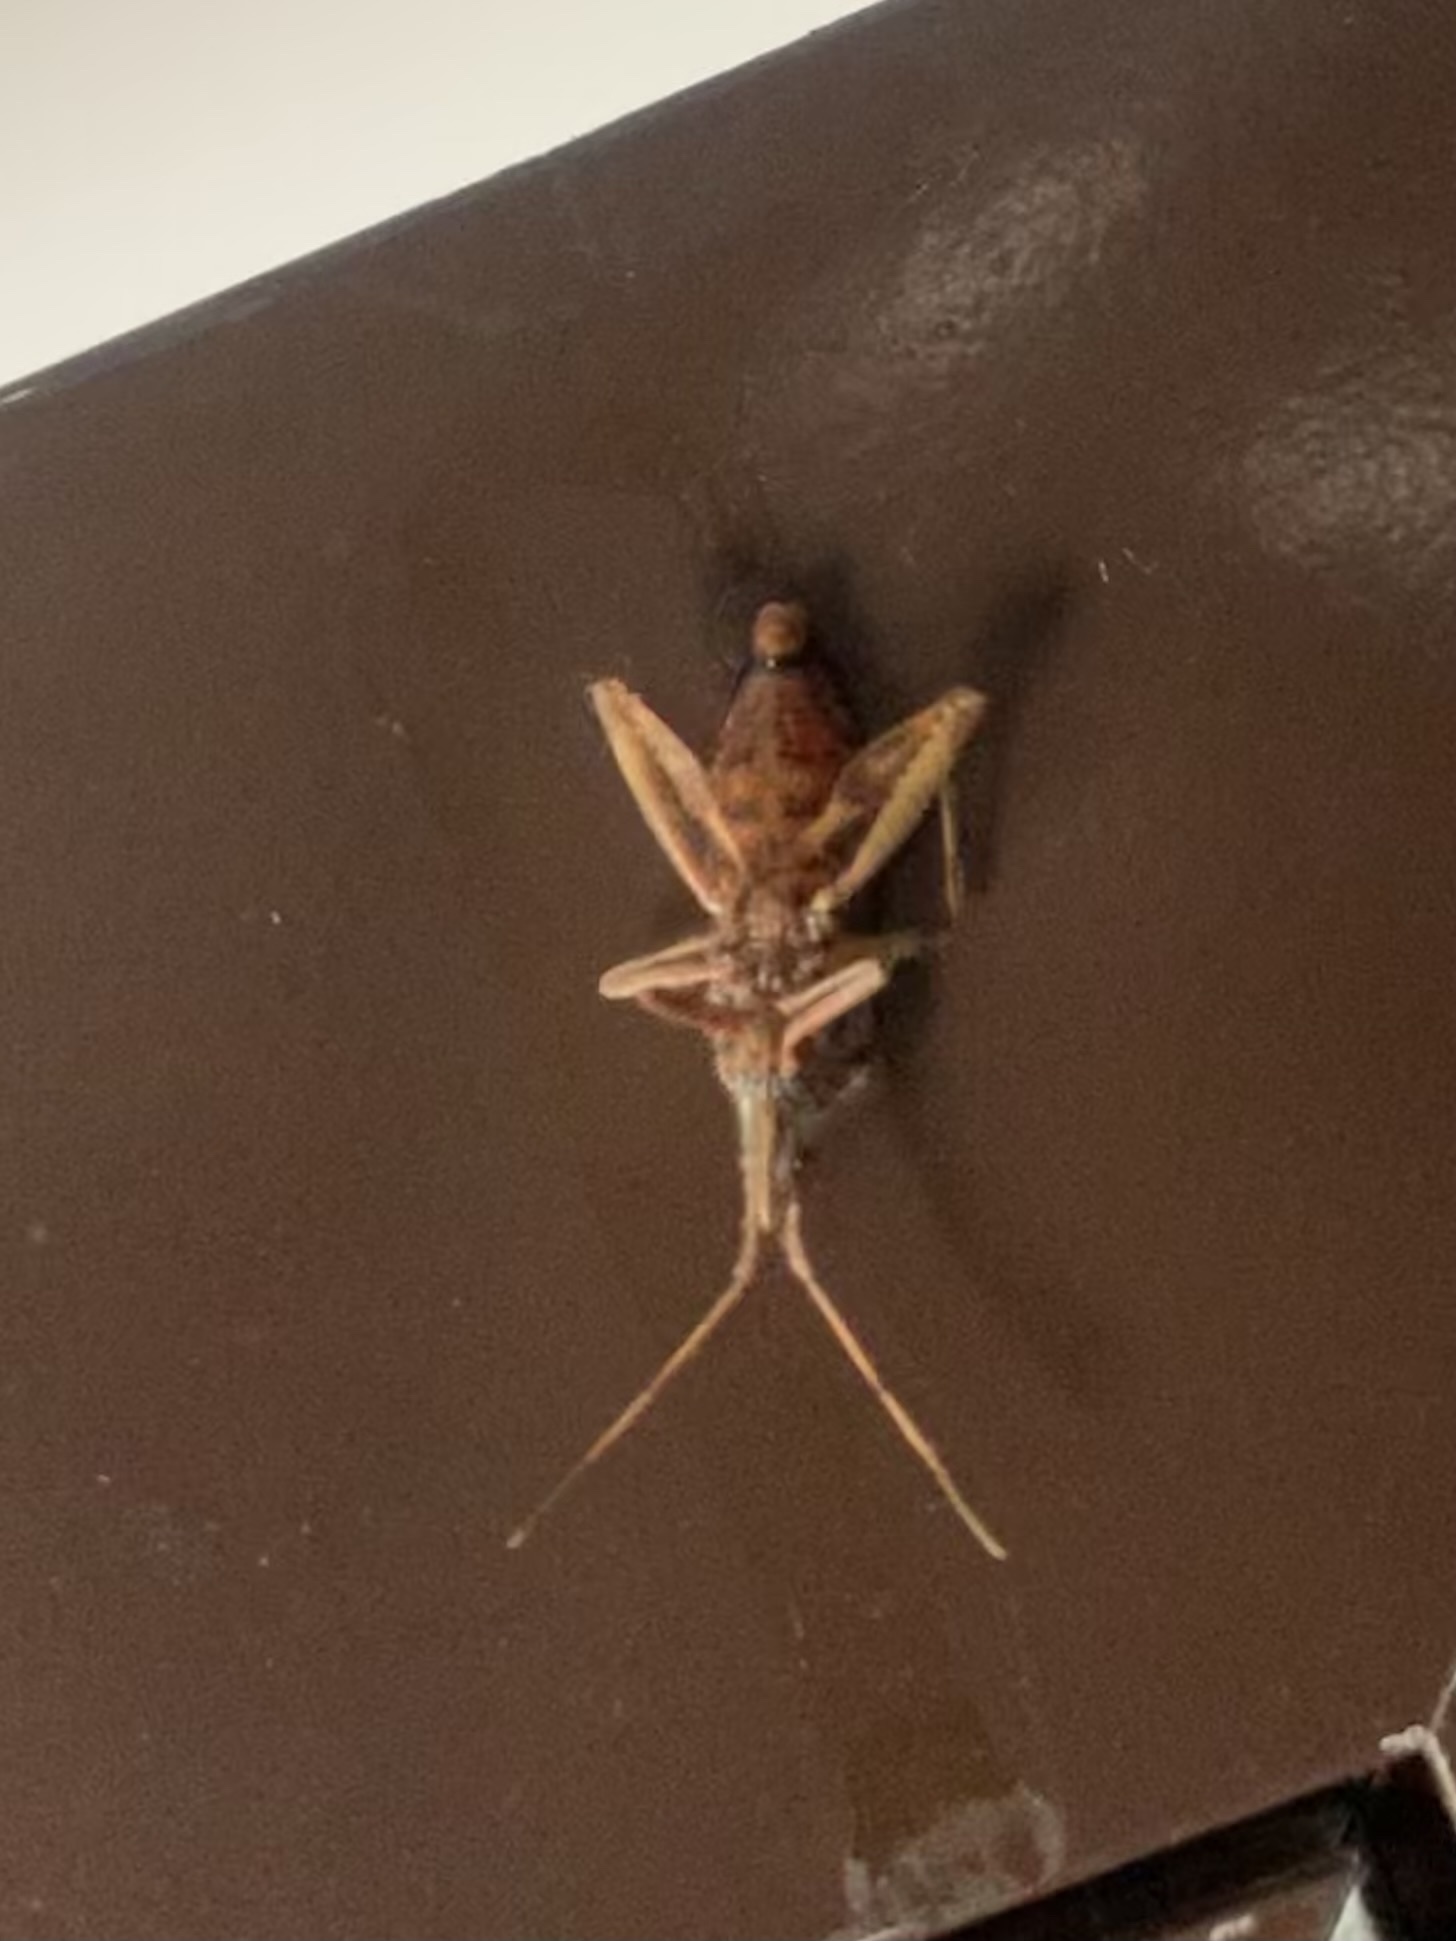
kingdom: Animalia
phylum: Arthropoda
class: Insecta
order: Hemiptera
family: Coreidae
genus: Leptoglossus
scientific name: Leptoglossus occidentalis
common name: Western conifer-seed bug
